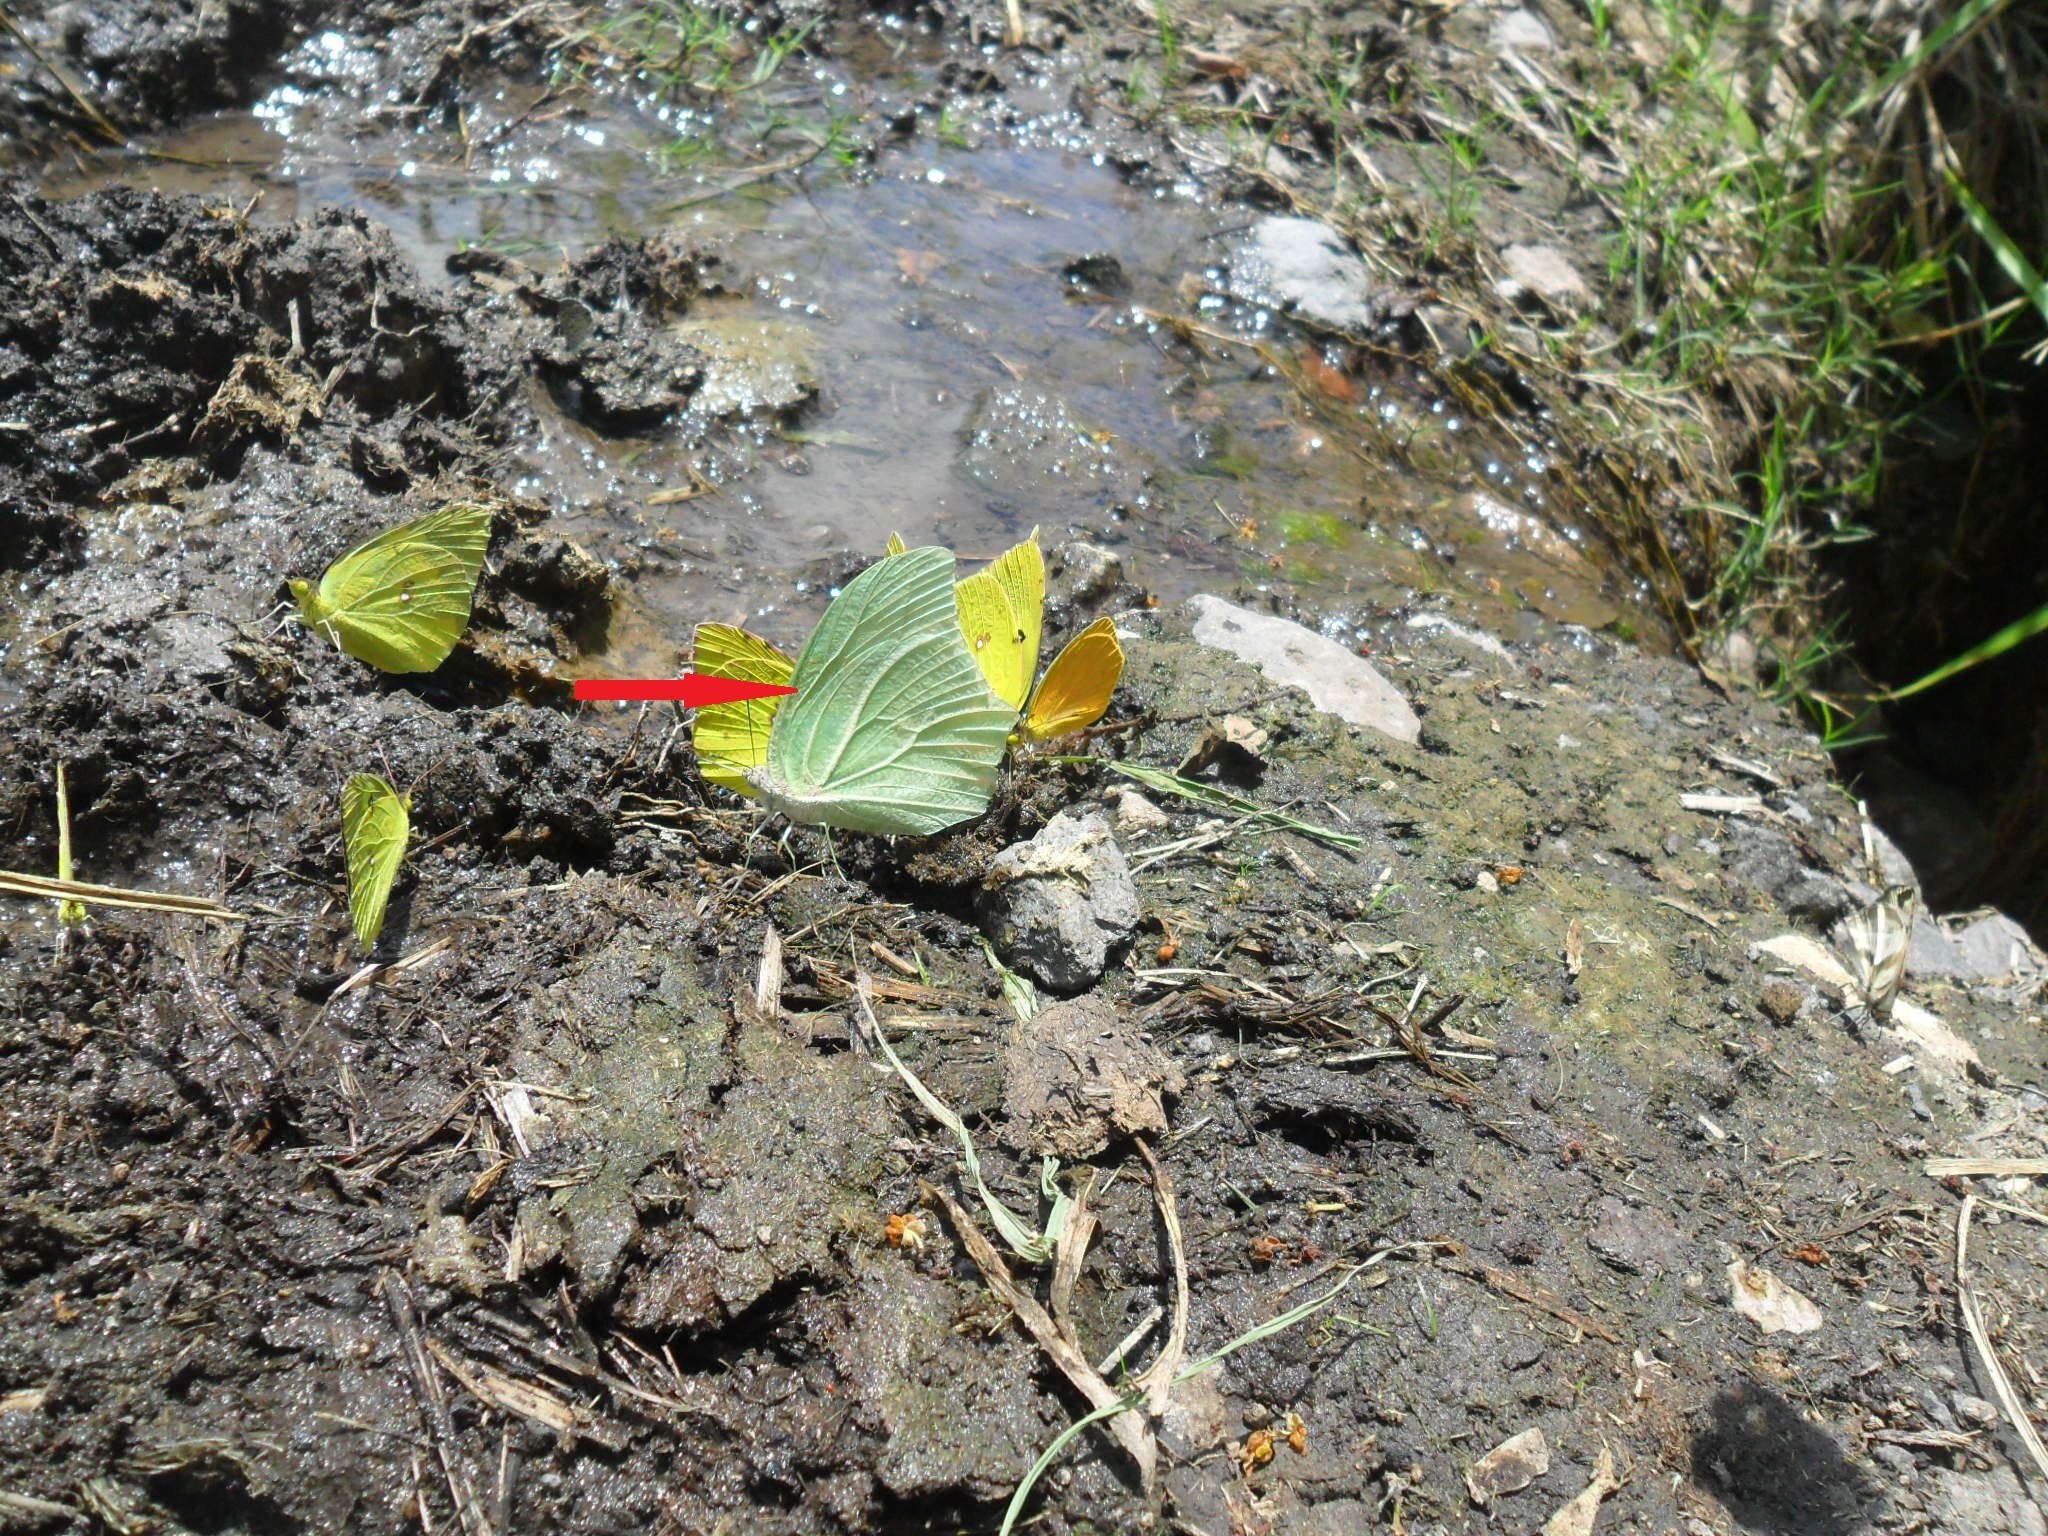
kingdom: Animalia
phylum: Arthropoda
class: Insecta
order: Lepidoptera
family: Pieridae
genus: Anteos
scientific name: Anteos clorinde
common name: White angled sulphur
